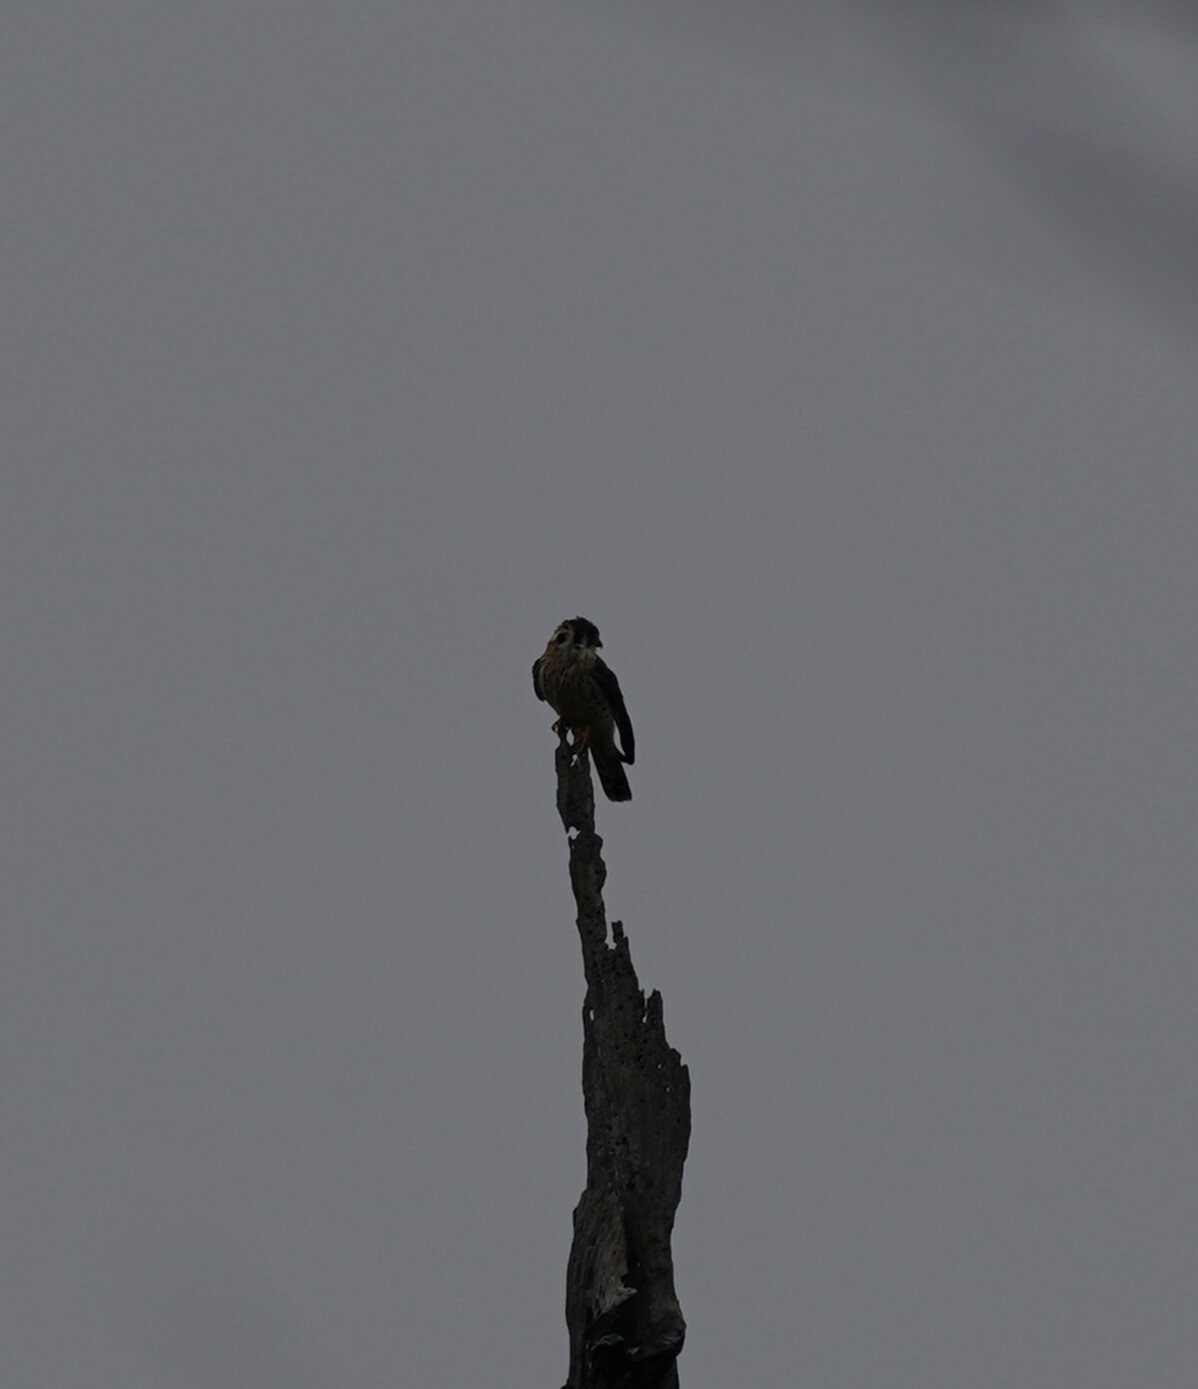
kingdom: Animalia
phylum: Chordata
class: Aves
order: Falconiformes
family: Falconidae
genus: Falco
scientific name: Falco sparverius
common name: American kestrel
